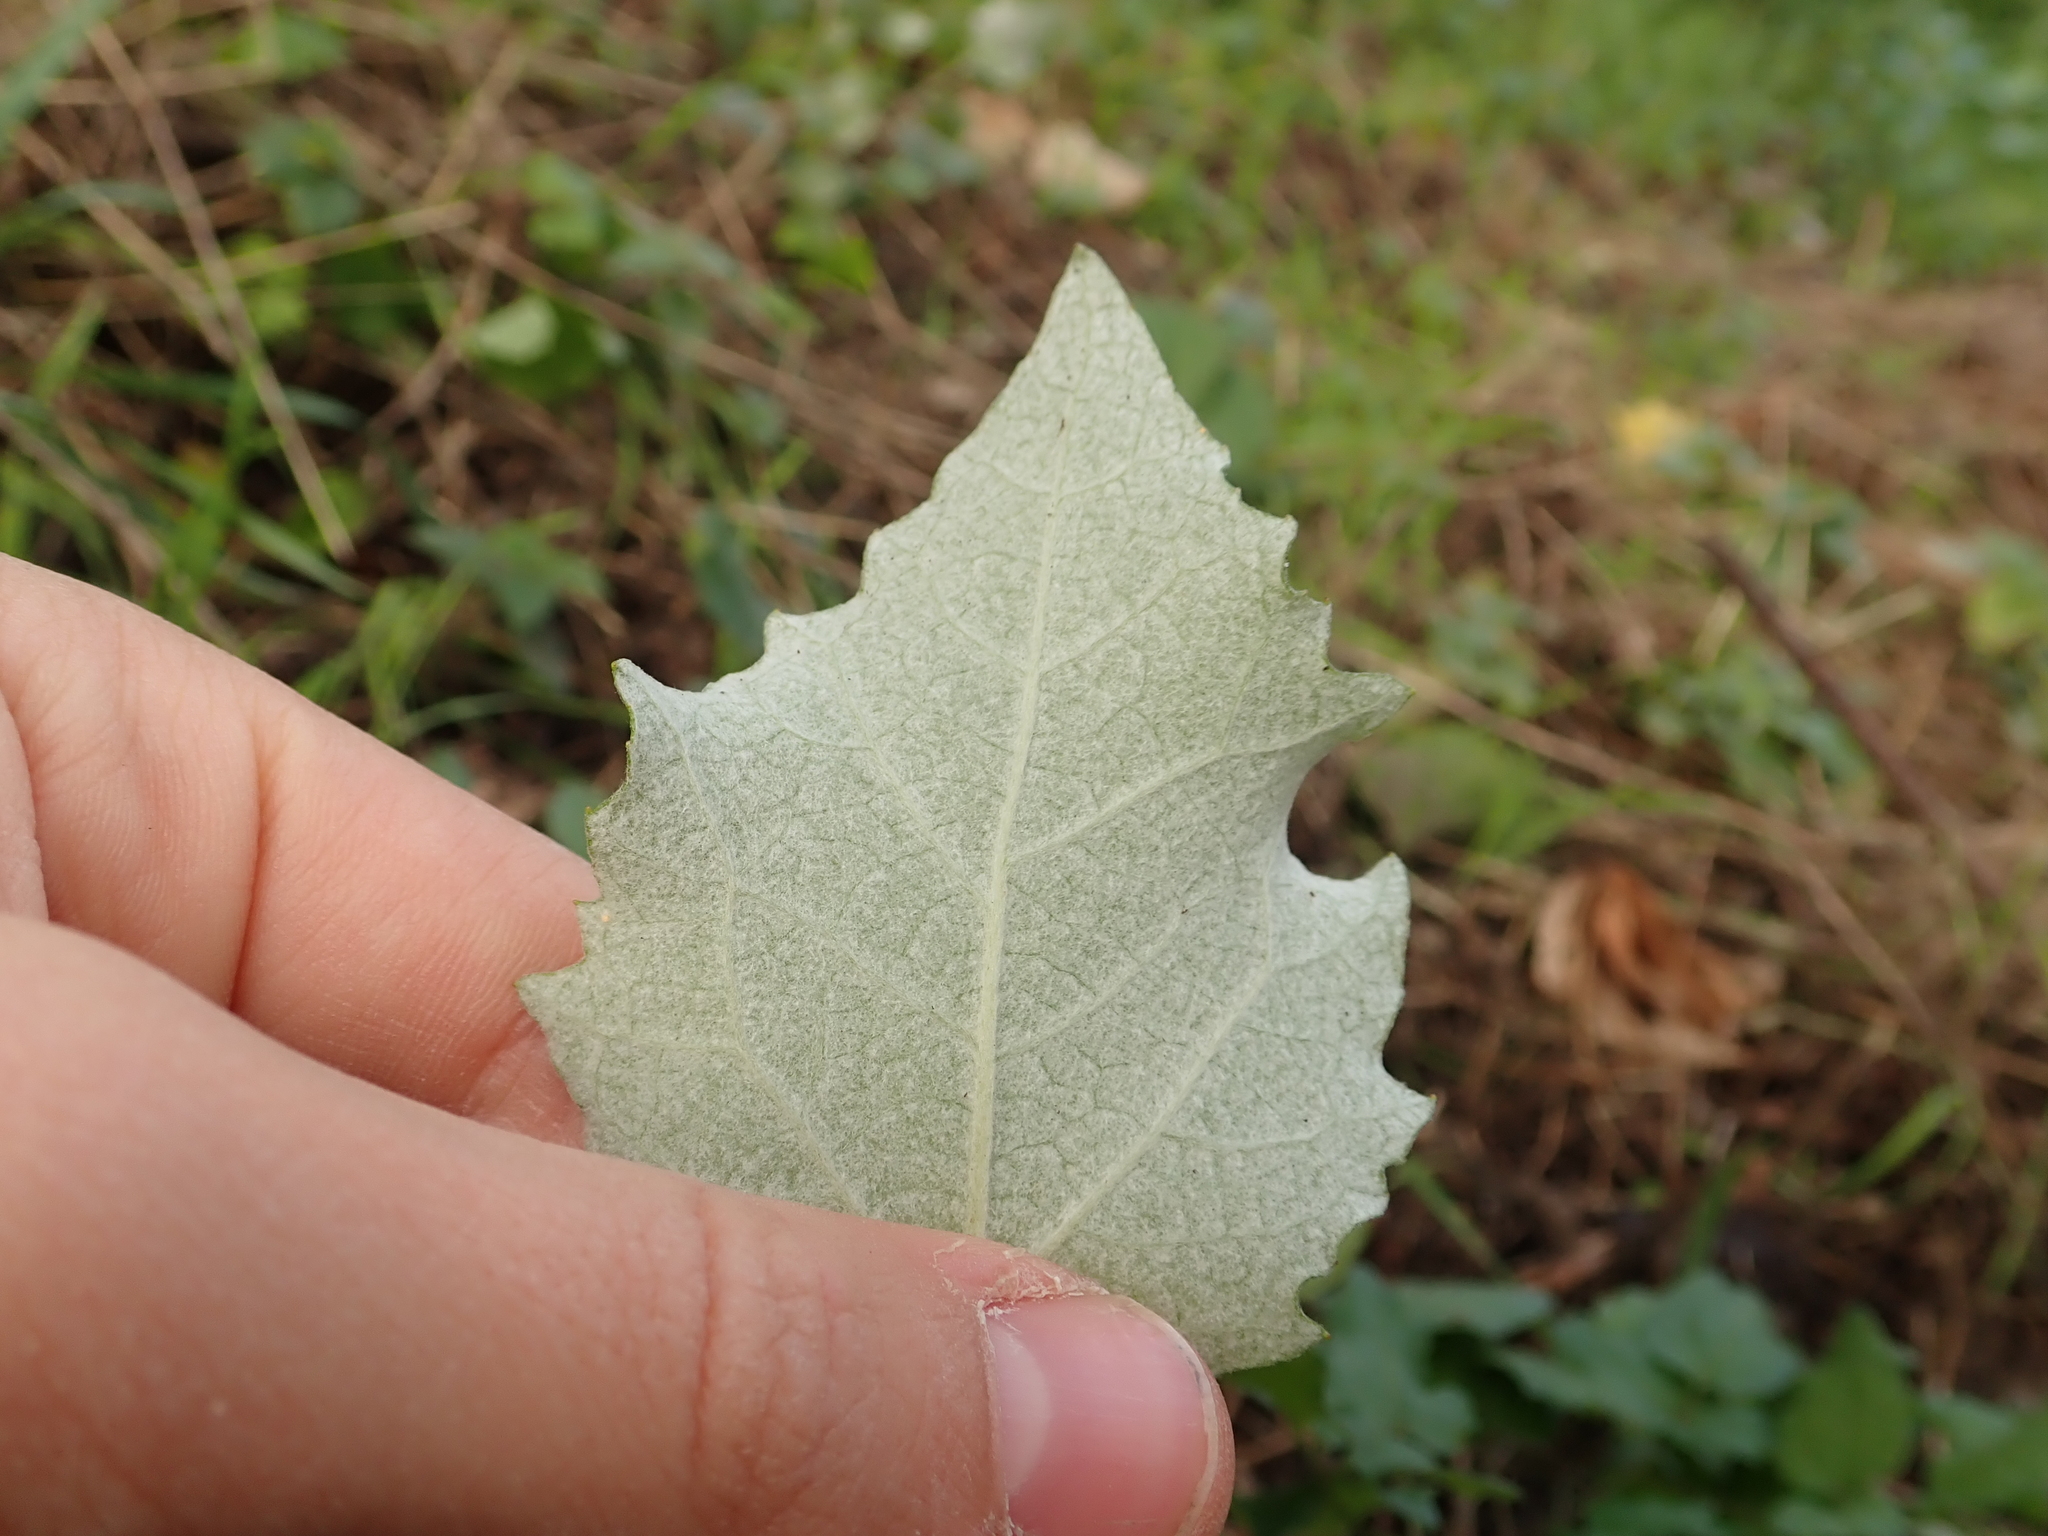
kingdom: Plantae
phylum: Tracheophyta
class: Magnoliopsida
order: Malpighiales
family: Salicaceae
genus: Populus
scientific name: Populus alba
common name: White poplar
